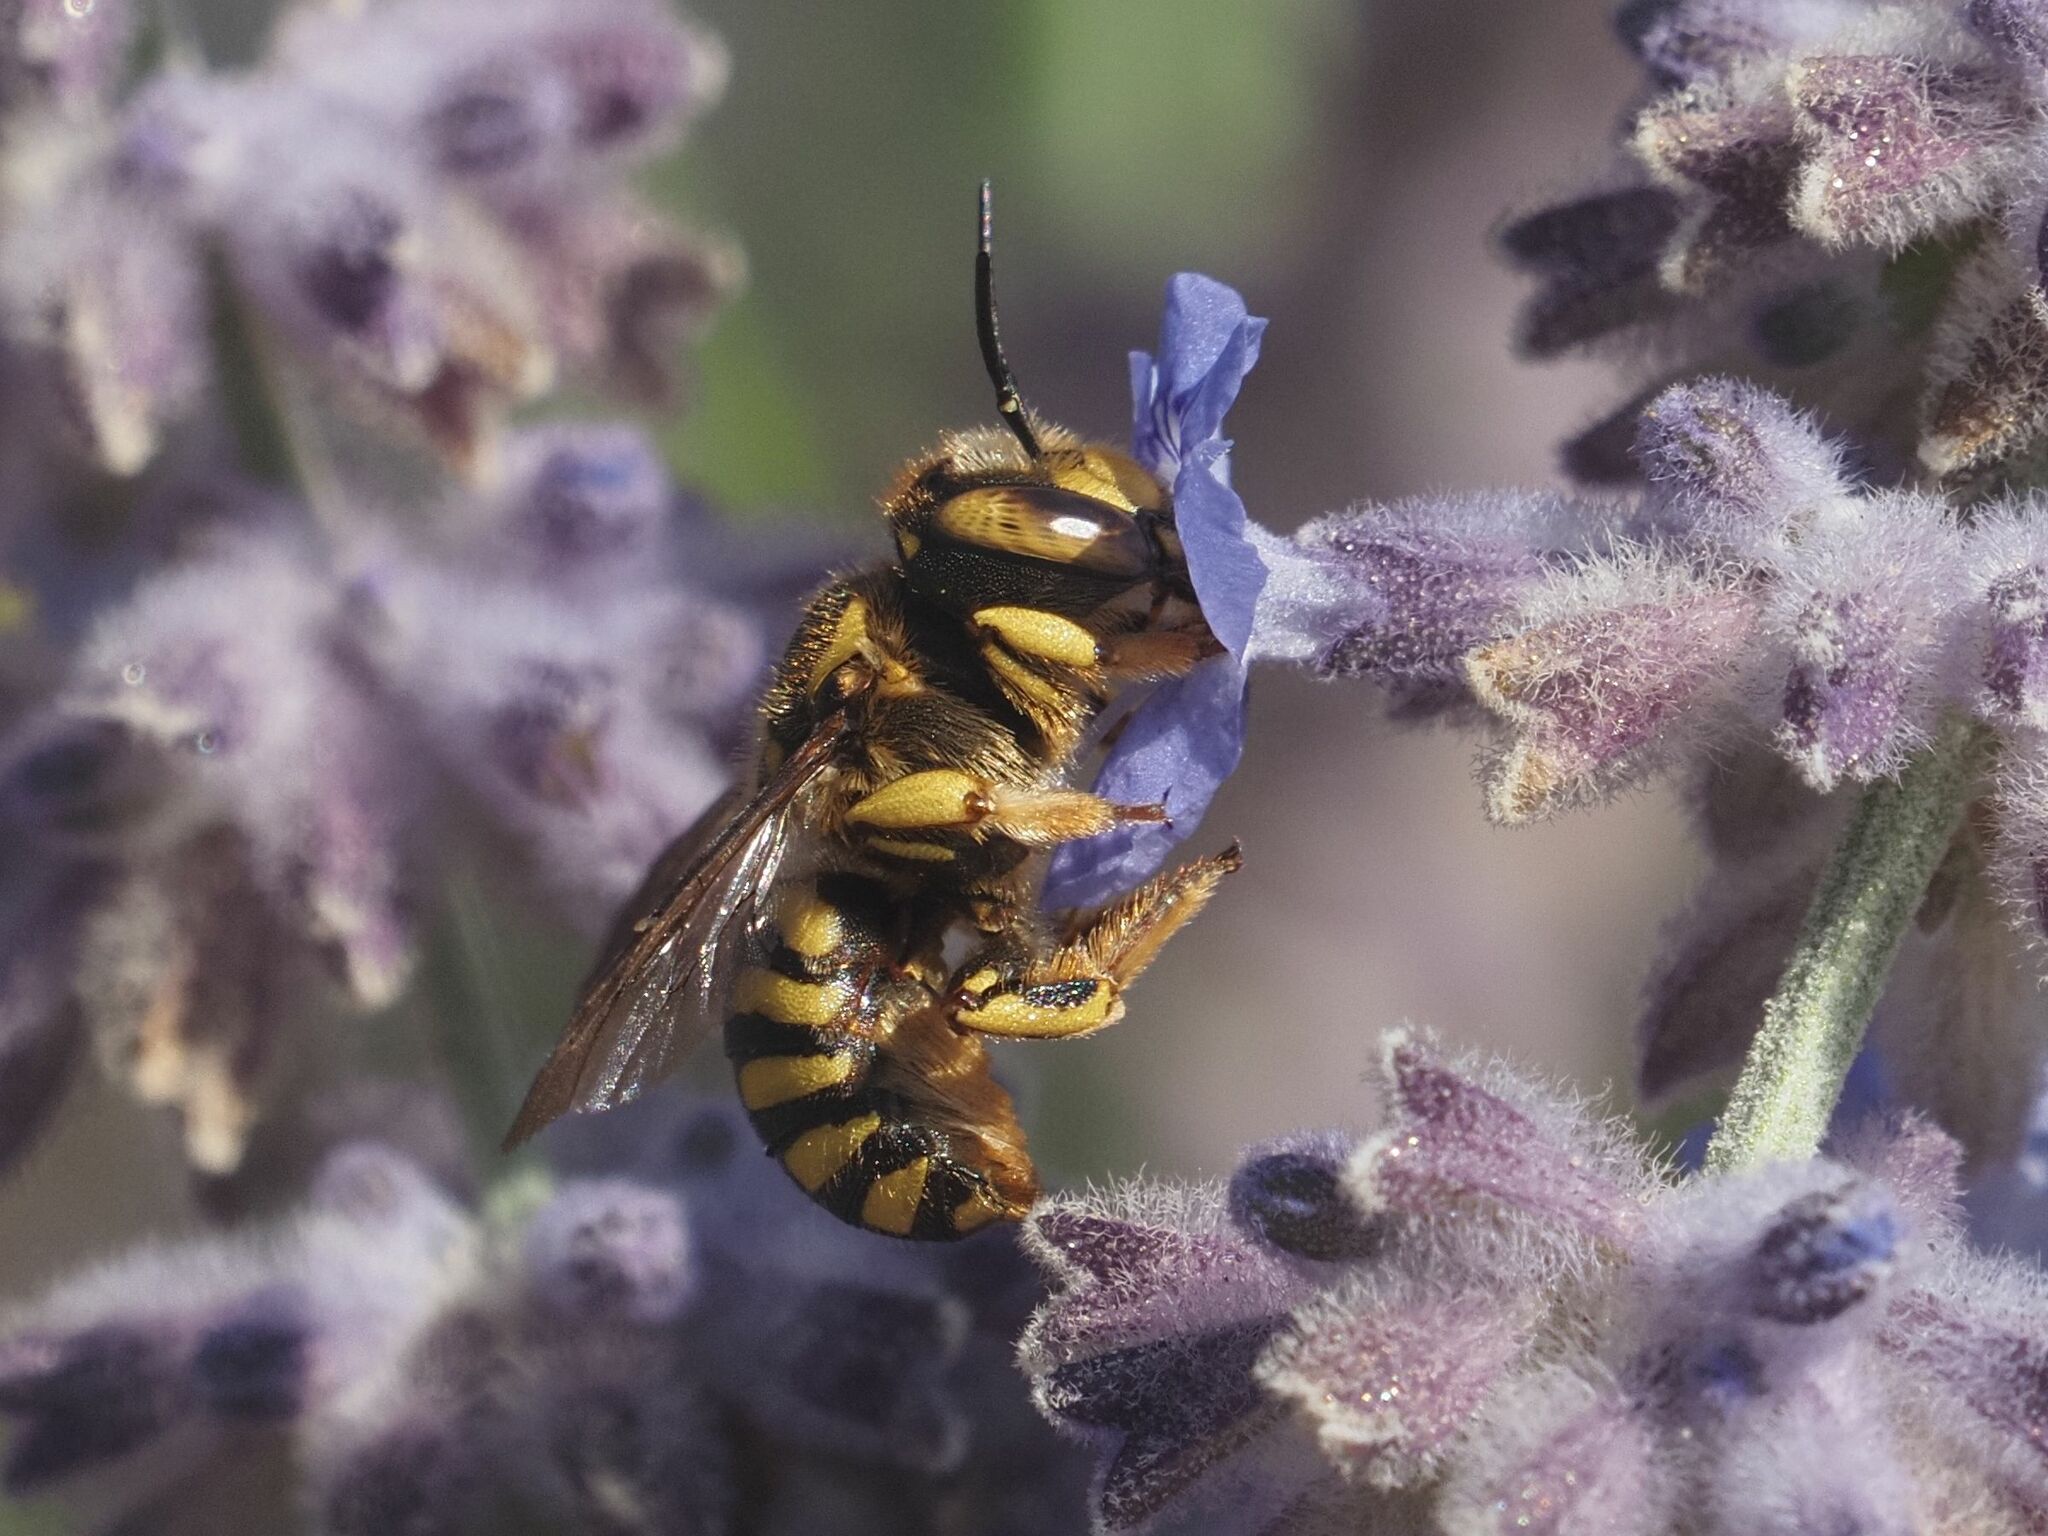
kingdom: Animalia
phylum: Arthropoda
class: Insecta
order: Hymenoptera
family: Megachilidae
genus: Anthidium
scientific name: Anthidium florentinum
